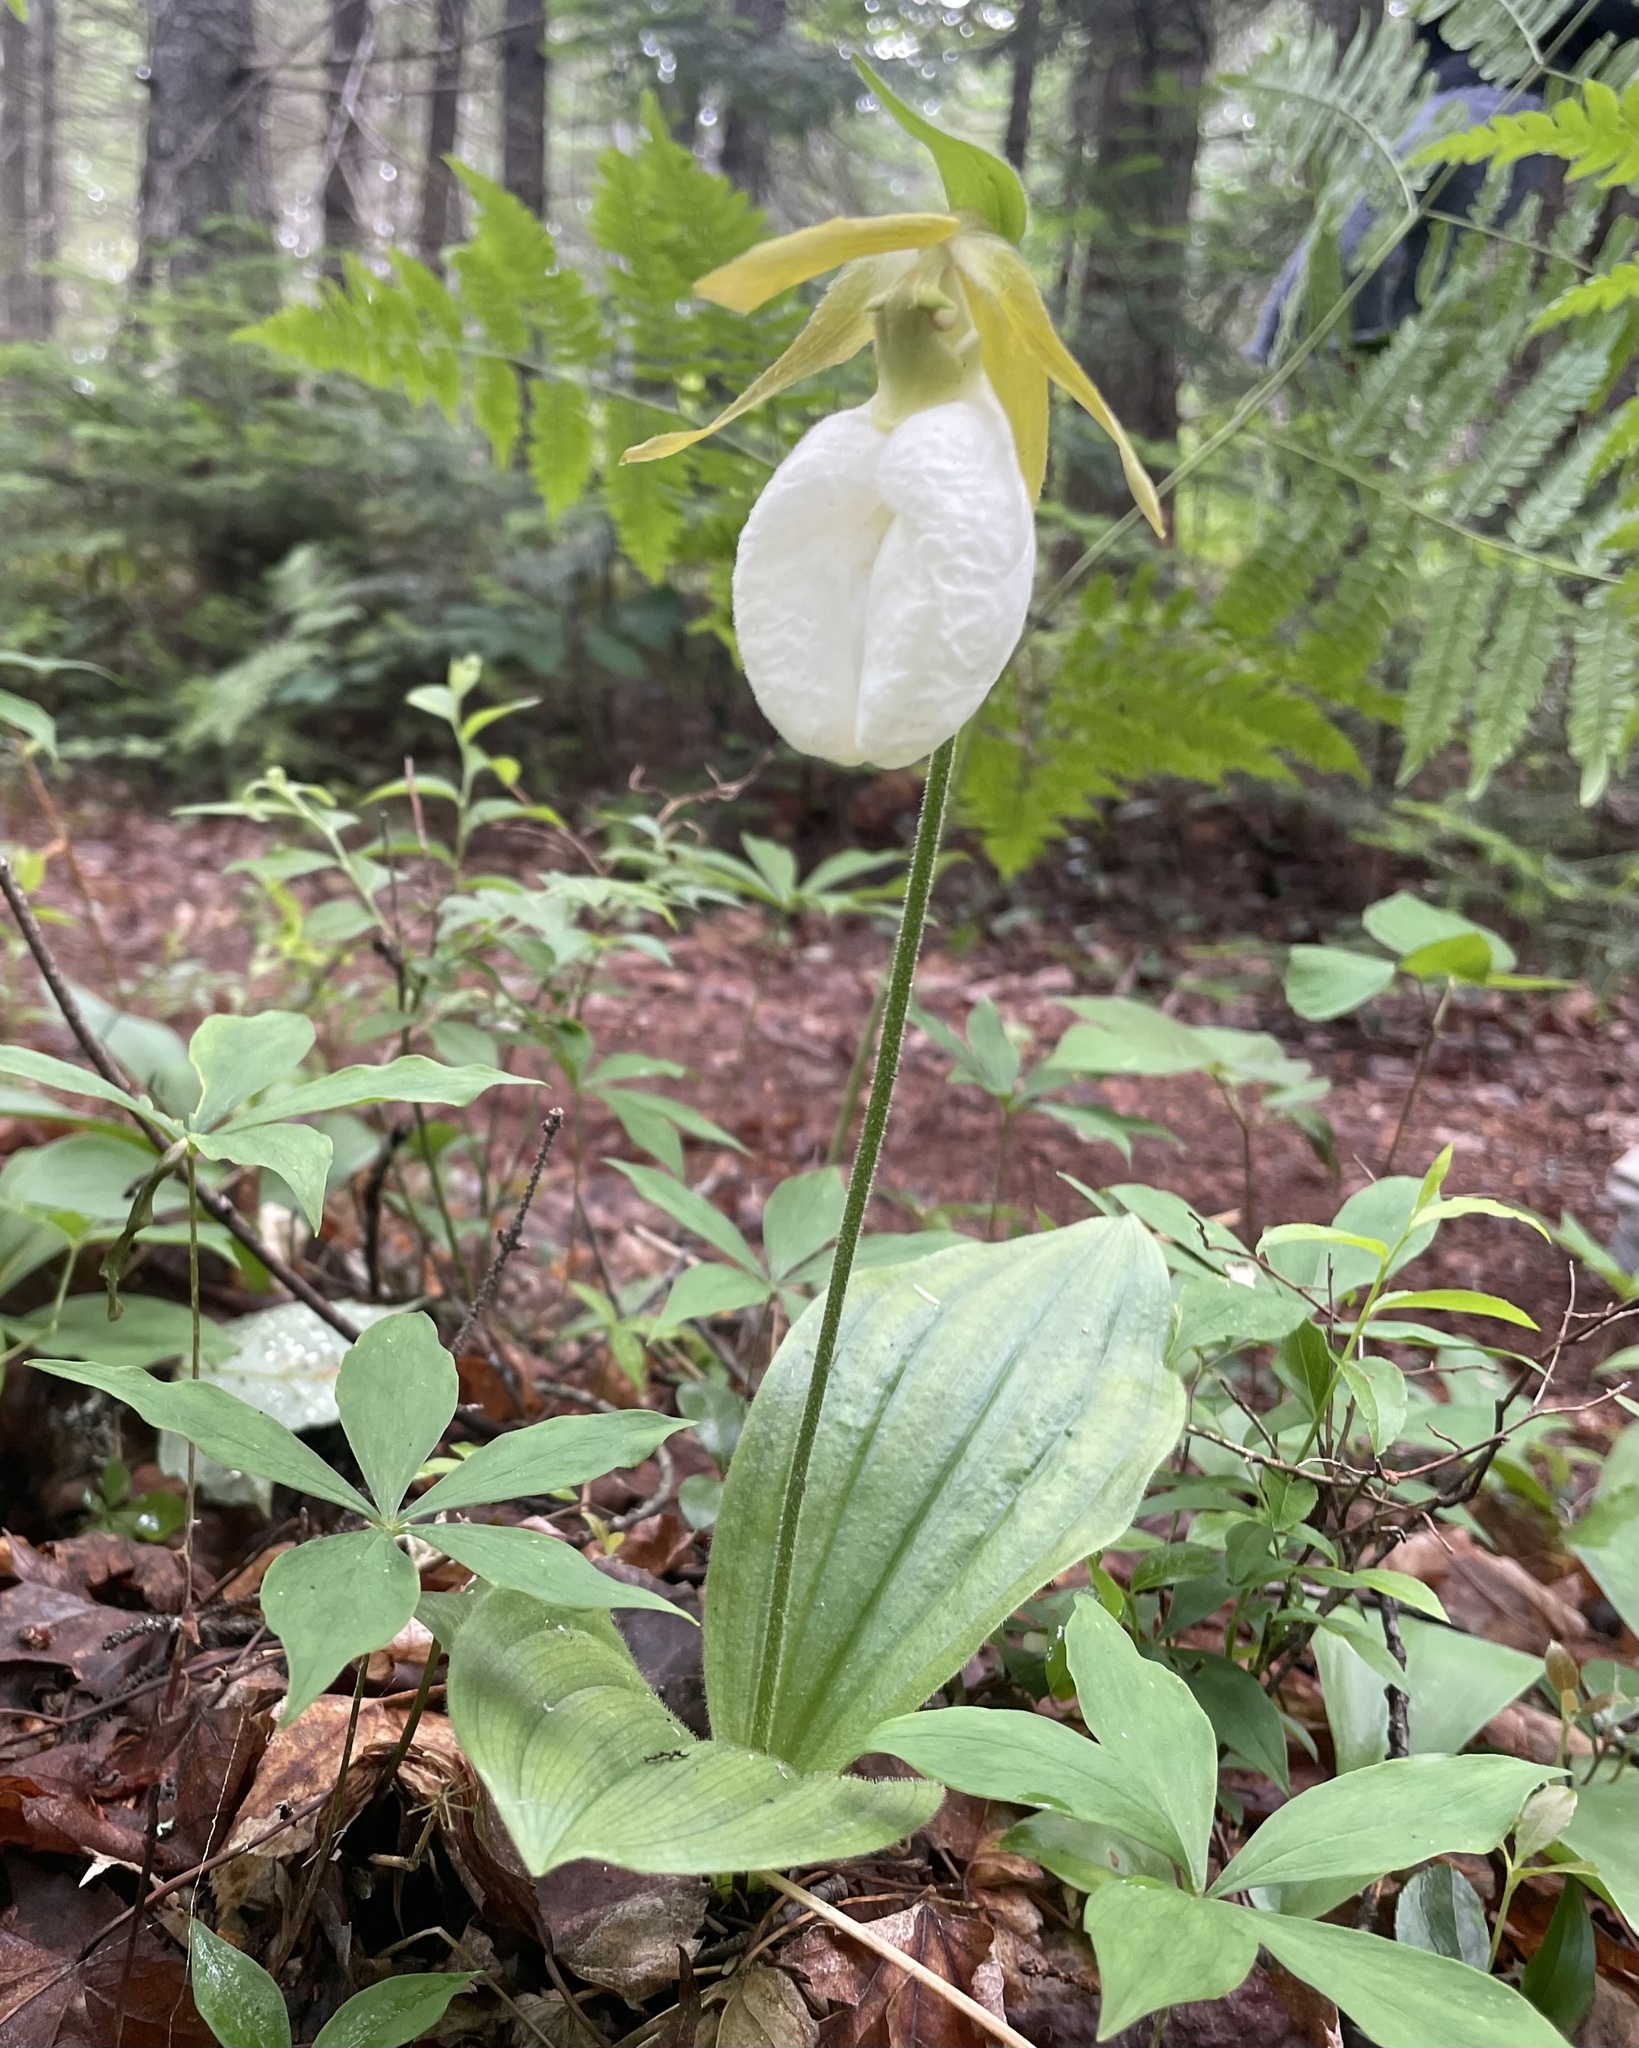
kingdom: Plantae
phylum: Tracheophyta
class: Liliopsida
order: Asparagales
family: Orchidaceae
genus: Cypripedium
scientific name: Cypripedium acaule
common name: Pink lady's-slipper
